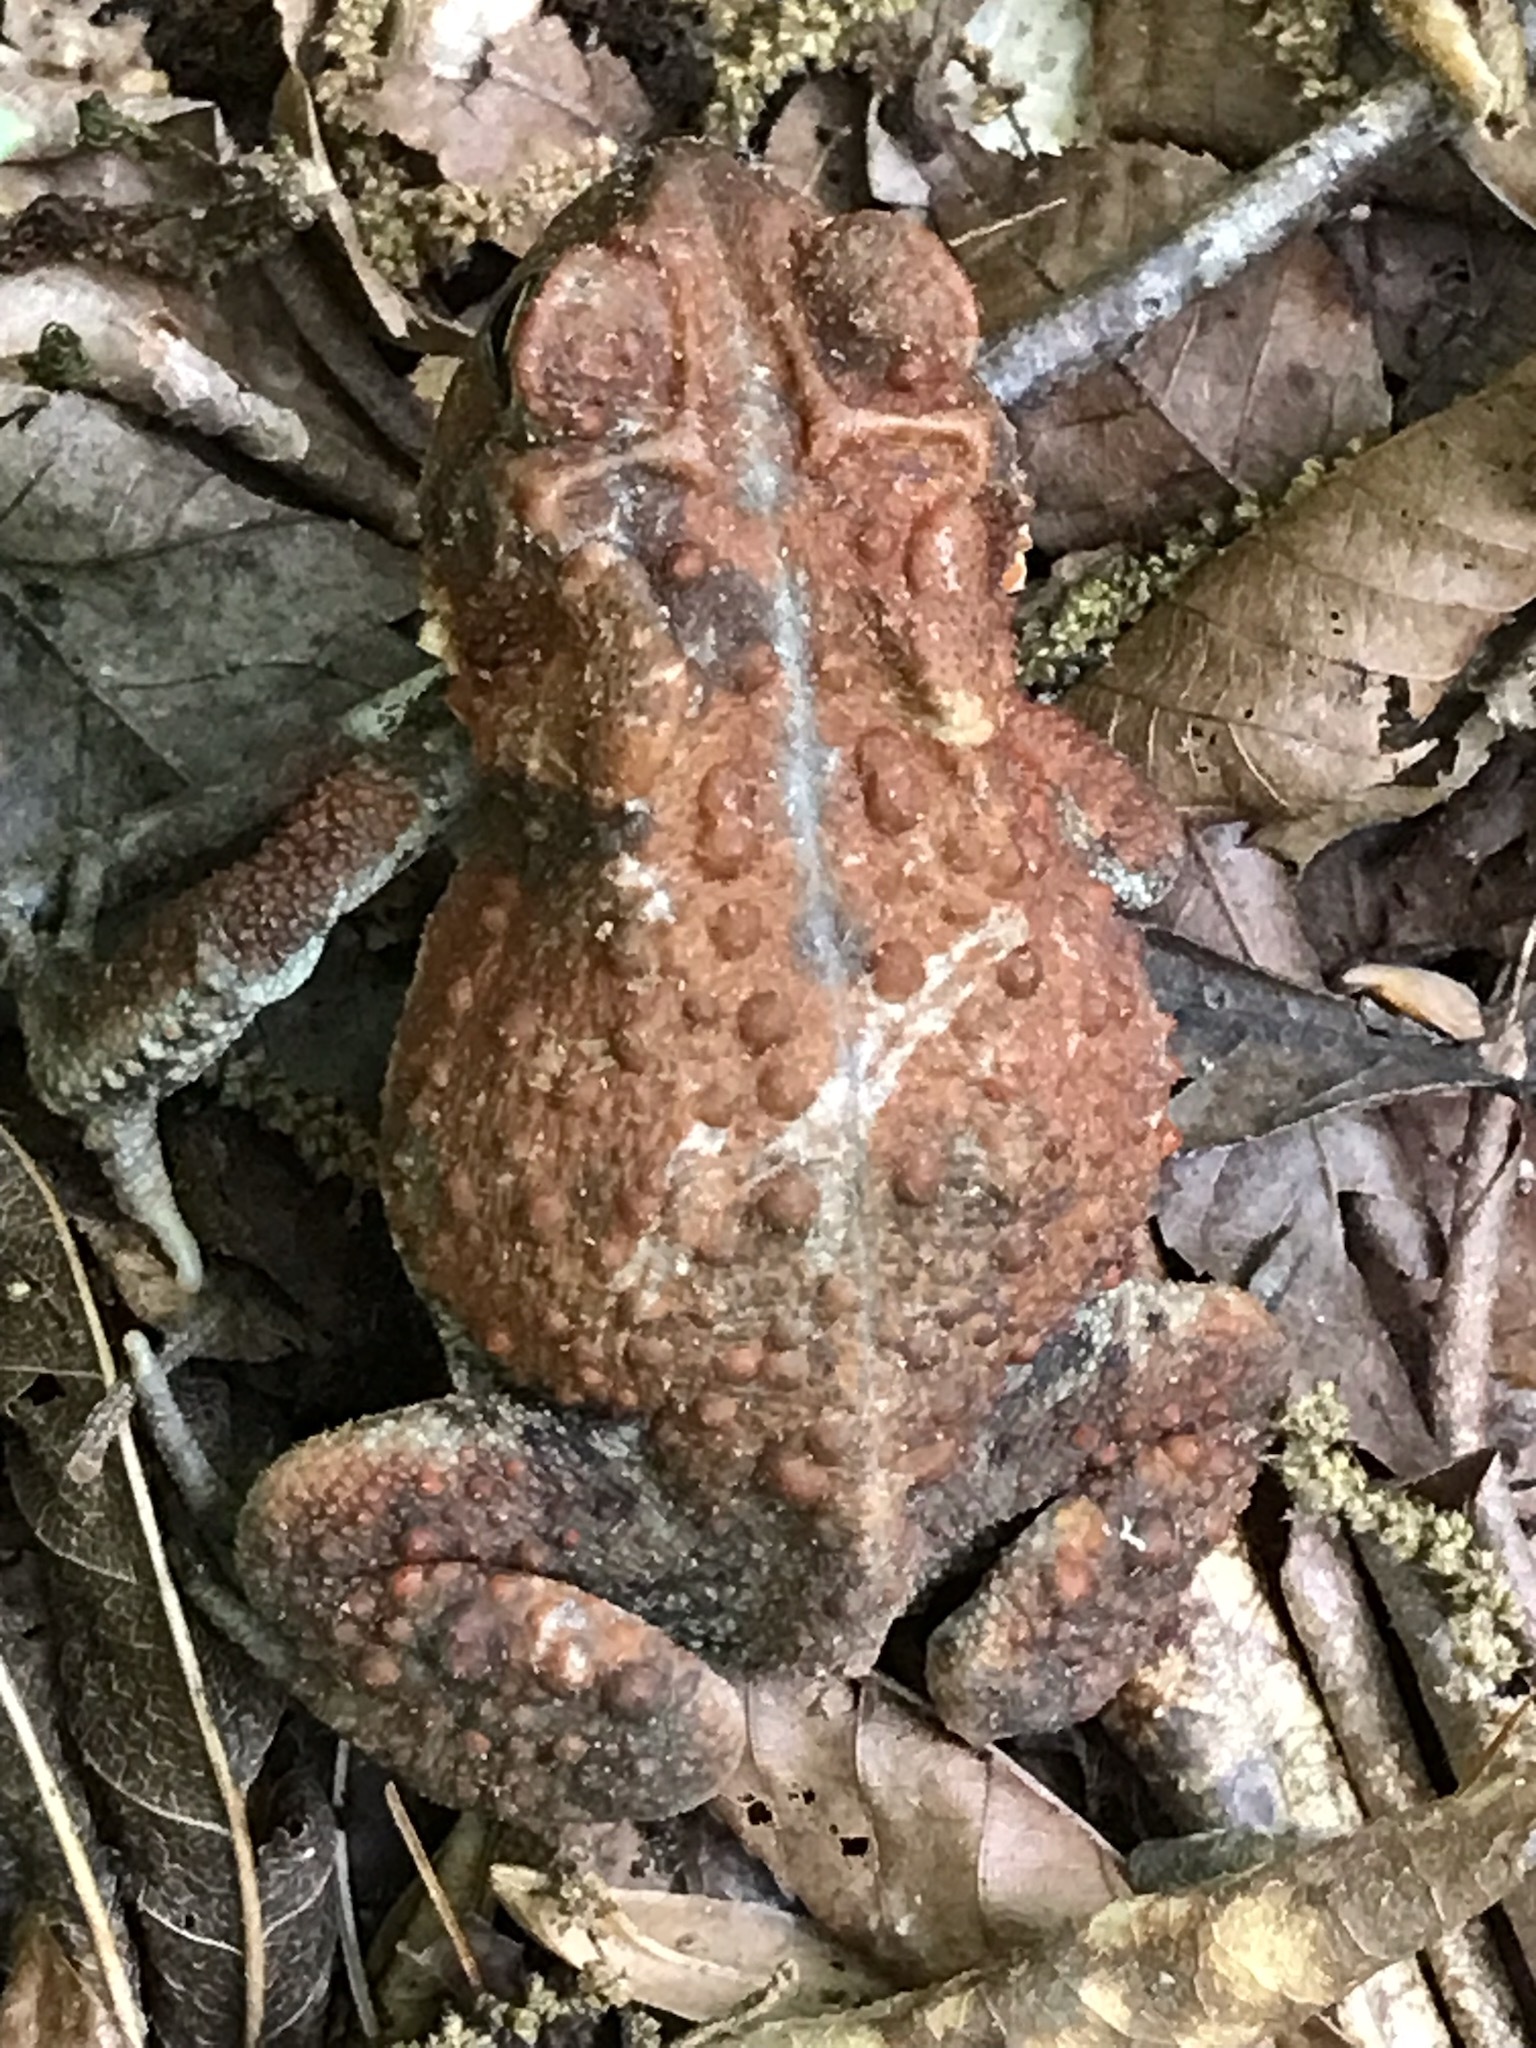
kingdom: Animalia
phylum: Chordata
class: Amphibia
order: Anura
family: Bufonidae
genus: Anaxyrus
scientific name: Anaxyrus americanus
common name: American toad
